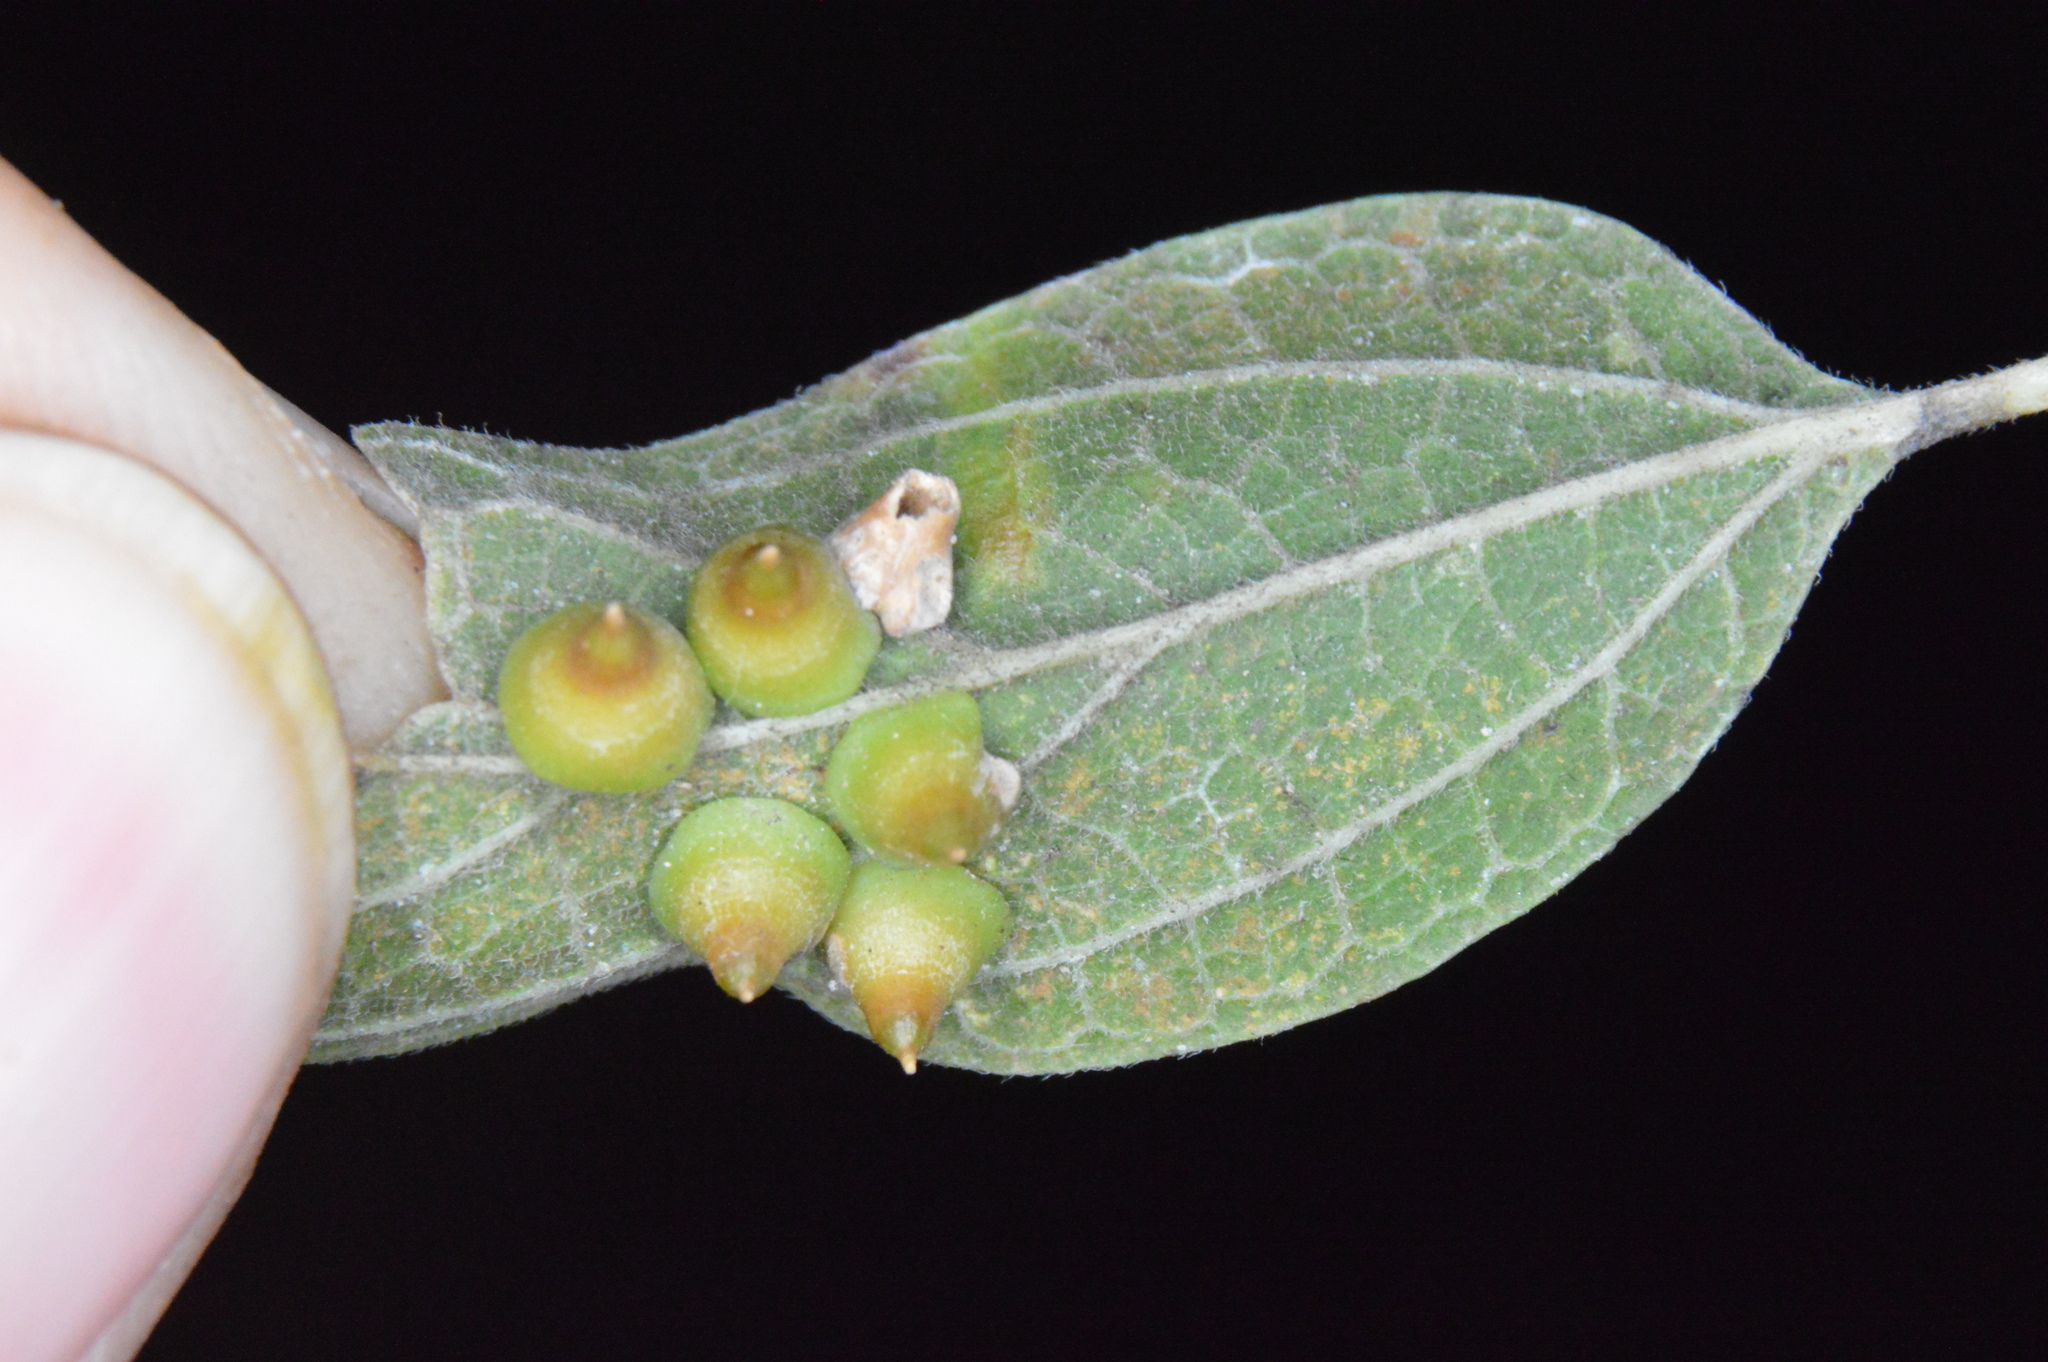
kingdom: Animalia
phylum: Arthropoda
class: Insecta
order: Diptera
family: Cecidomyiidae
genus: Celticecis
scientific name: Celticecis spiniformis
